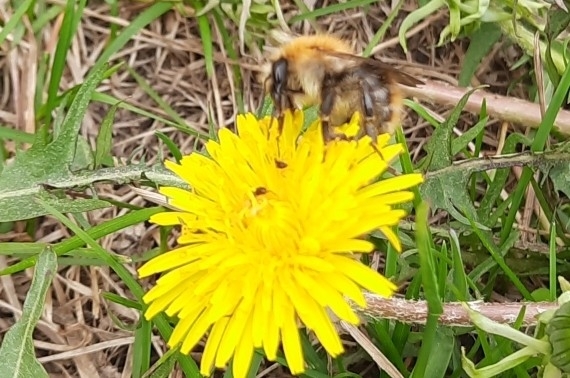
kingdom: Animalia
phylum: Arthropoda
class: Insecta
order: Hymenoptera
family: Apidae
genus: Bombus
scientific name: Bombus pascuorum
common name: Common carder bee
